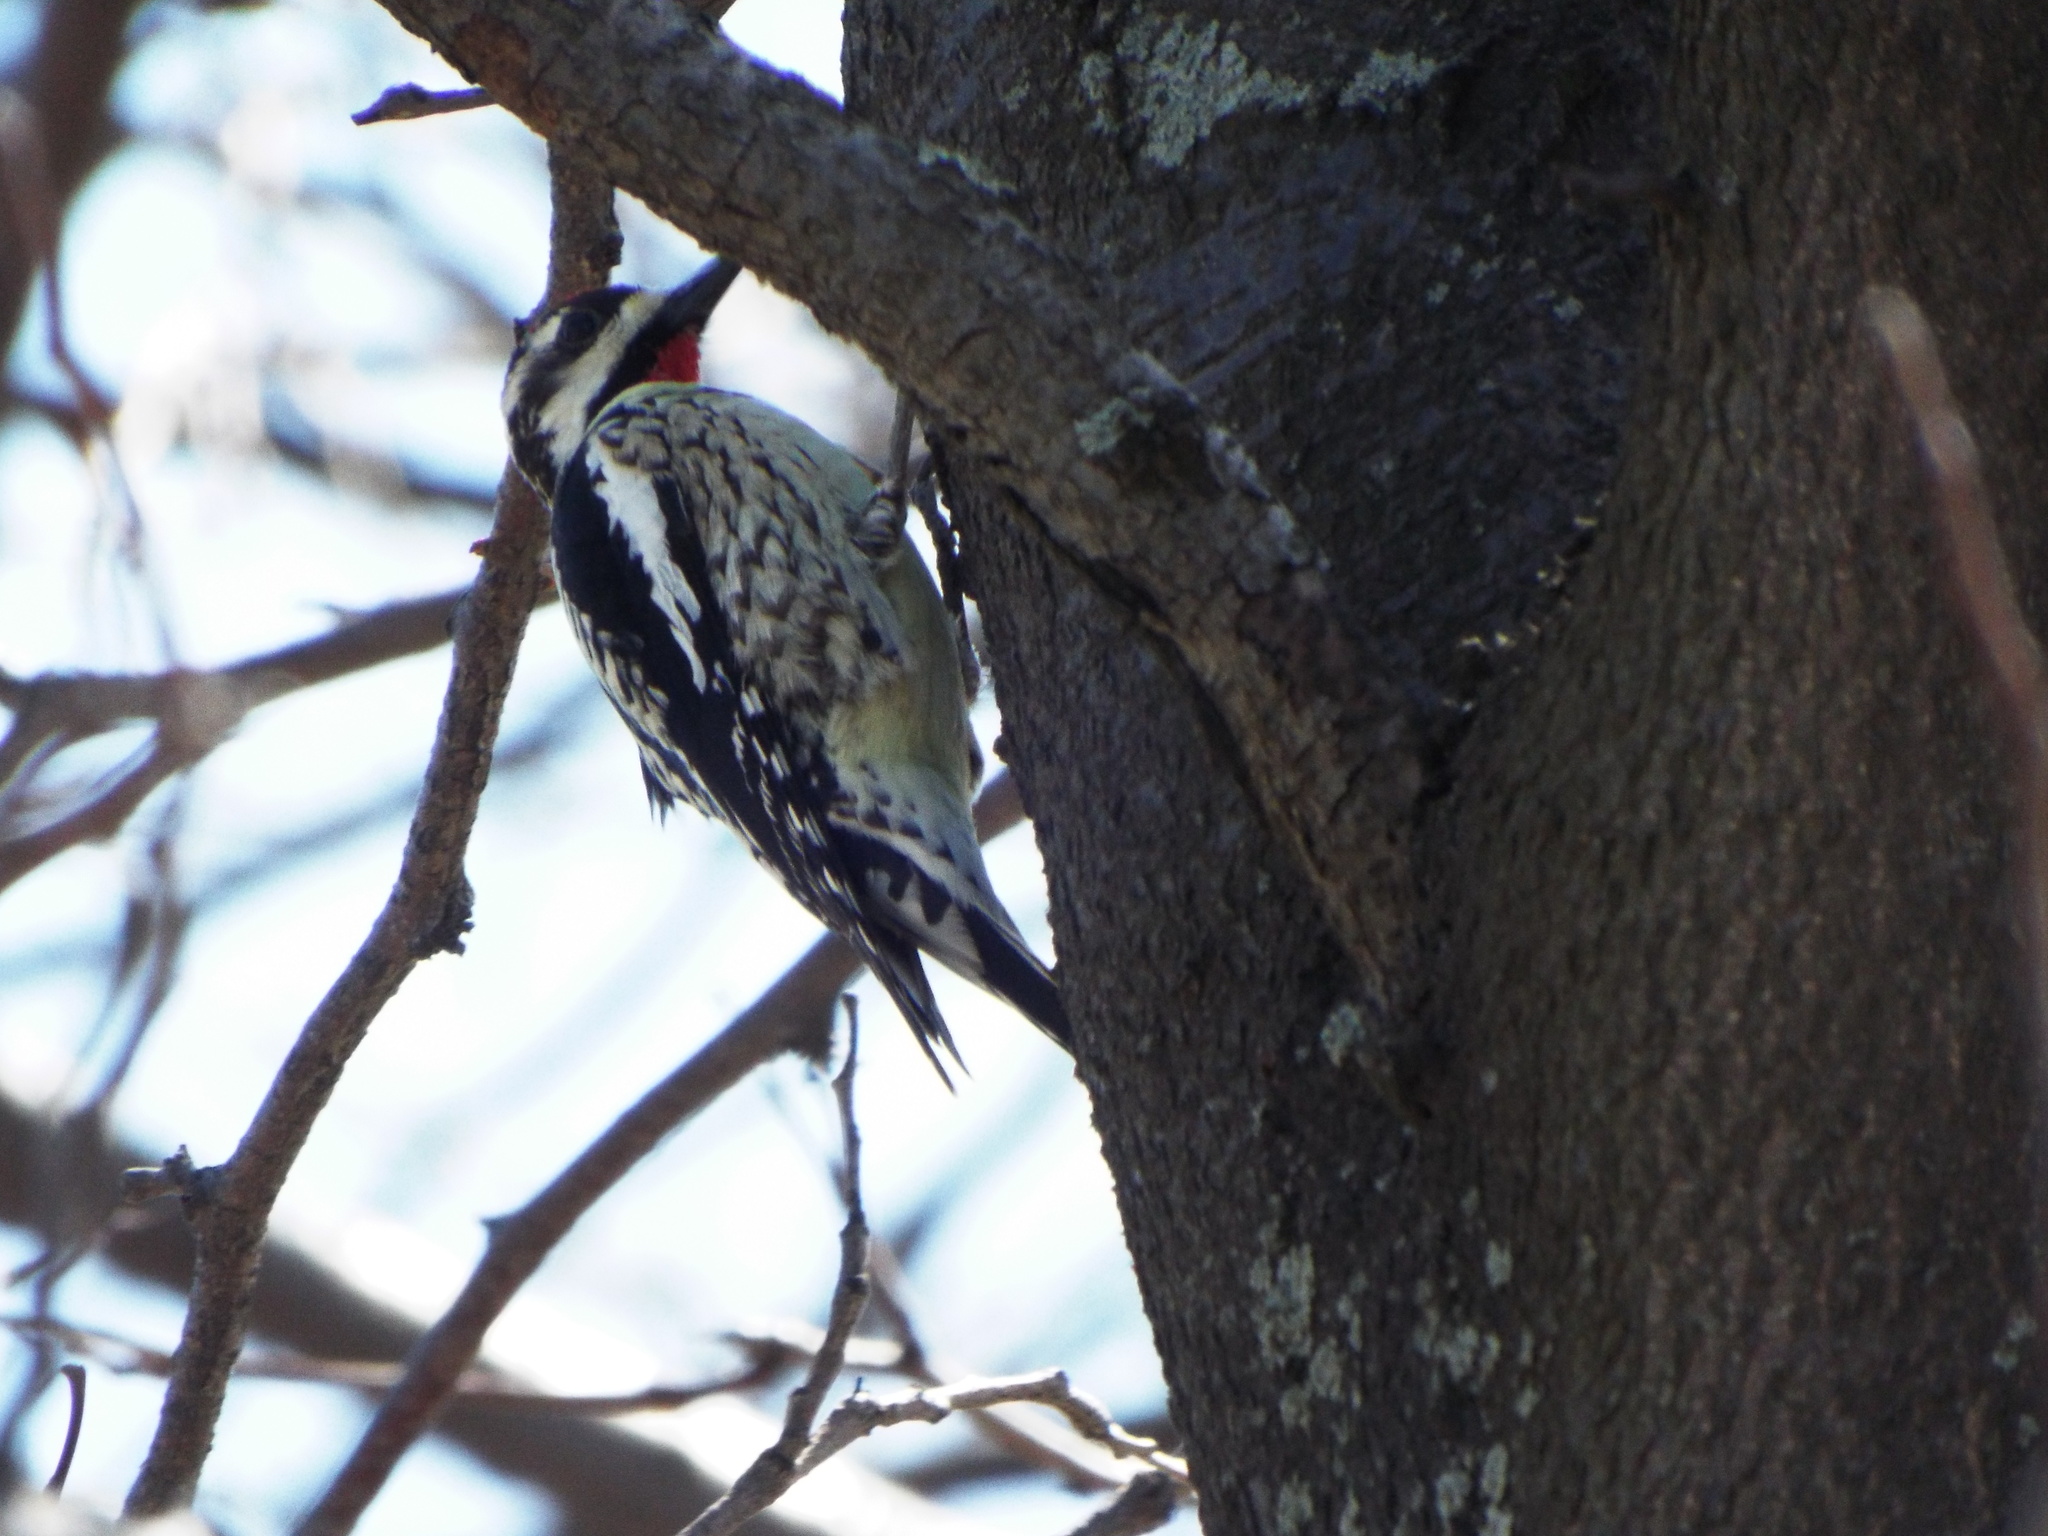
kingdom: Animalia
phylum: Chordata
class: Aves
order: Piciformes
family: Picidae
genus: Sphyrapicus
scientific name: Sphyrapicus varius
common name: Yellow-bellied sapsucker
